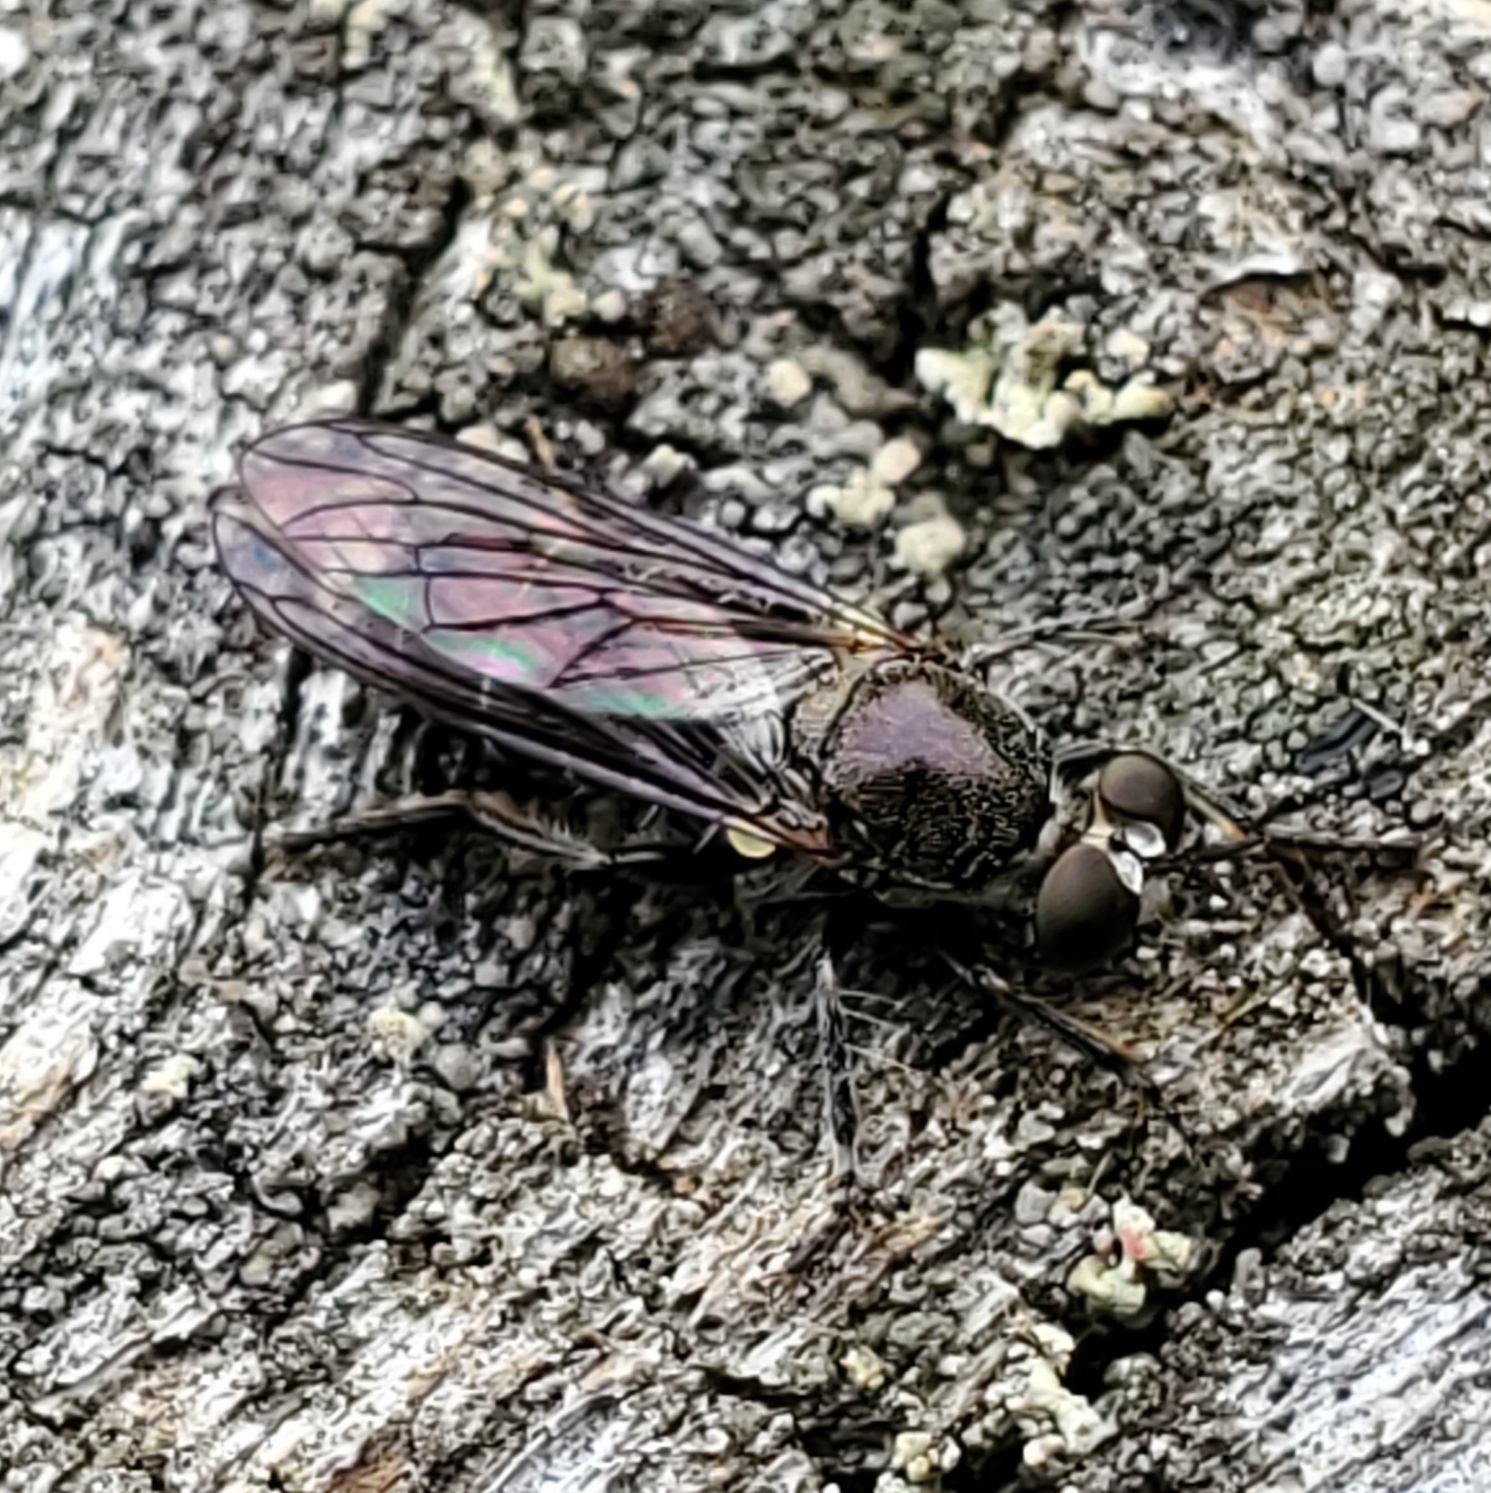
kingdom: Animalia
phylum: Arthropoda
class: Insecta
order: Diptera
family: Asilidae
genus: Atomosia
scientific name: Atomosia puella
